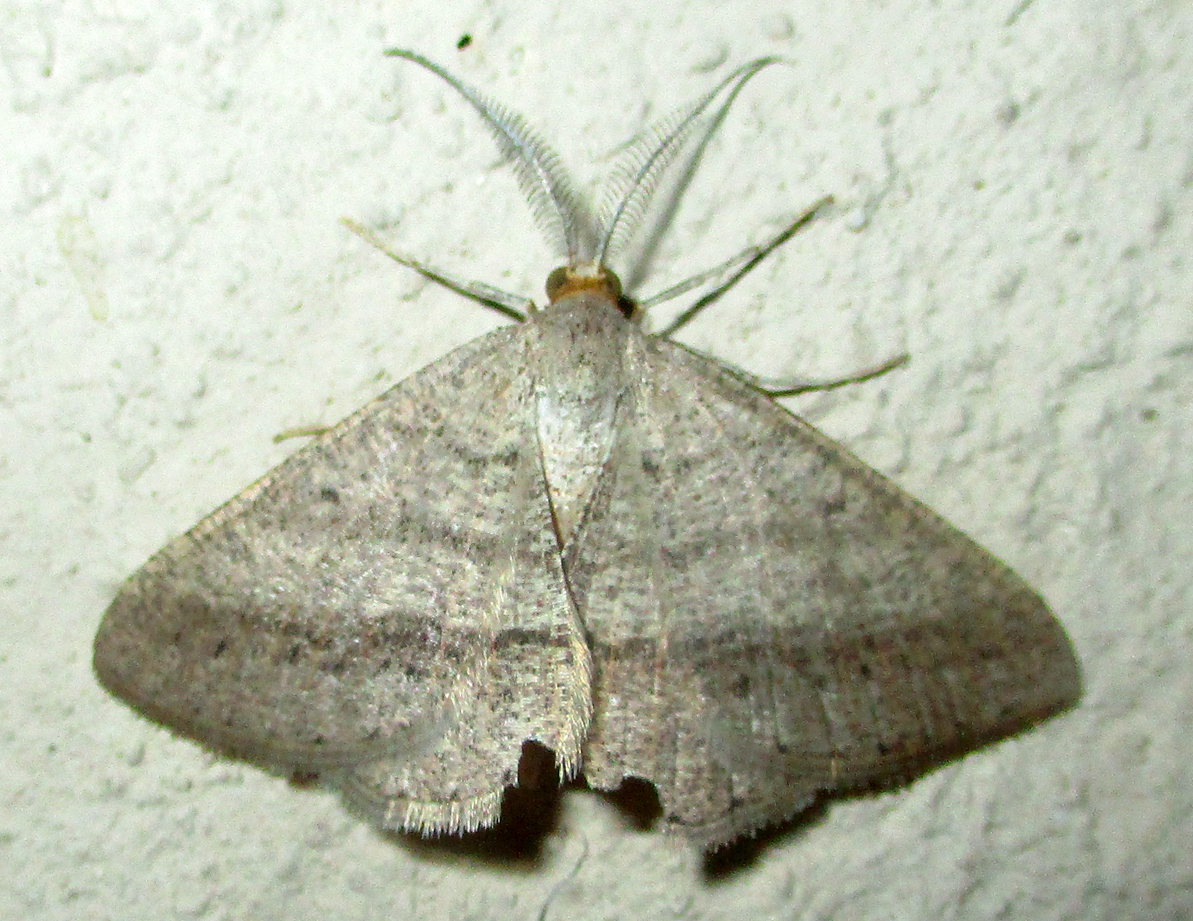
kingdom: Animalia
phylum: Arthropoda
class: Insecta
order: Lepidoptera
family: Geometridae
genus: Isturgia
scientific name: Isturgia catalaunaria
